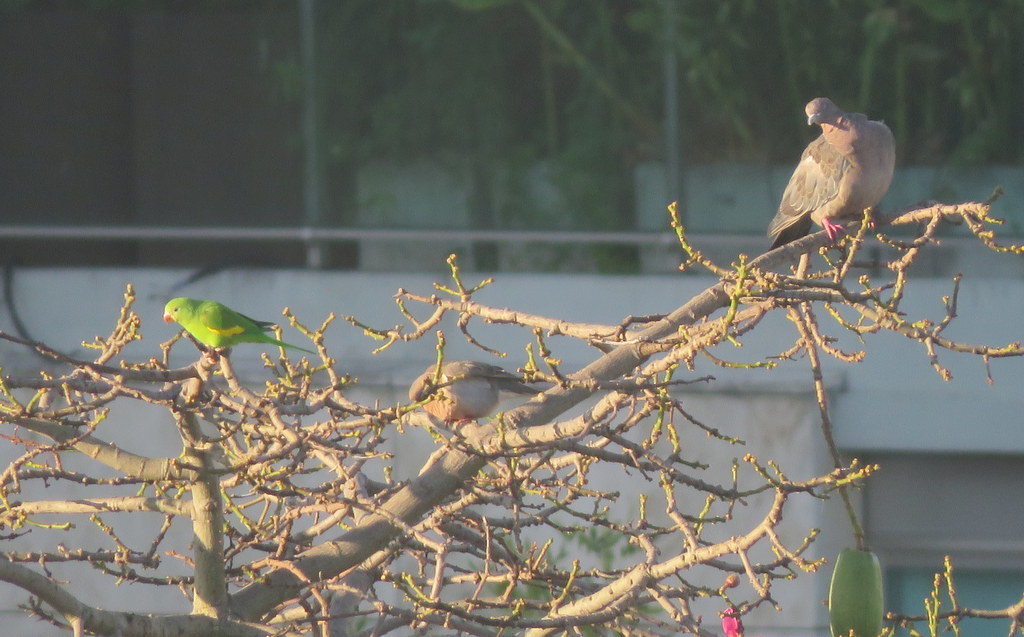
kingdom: Animalia
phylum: Chordata
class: Aves
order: Psittaciformes
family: Psittacidae
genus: Brotogeris
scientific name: Brotogeris chiriri
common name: Yellow-chevroned parakeet
